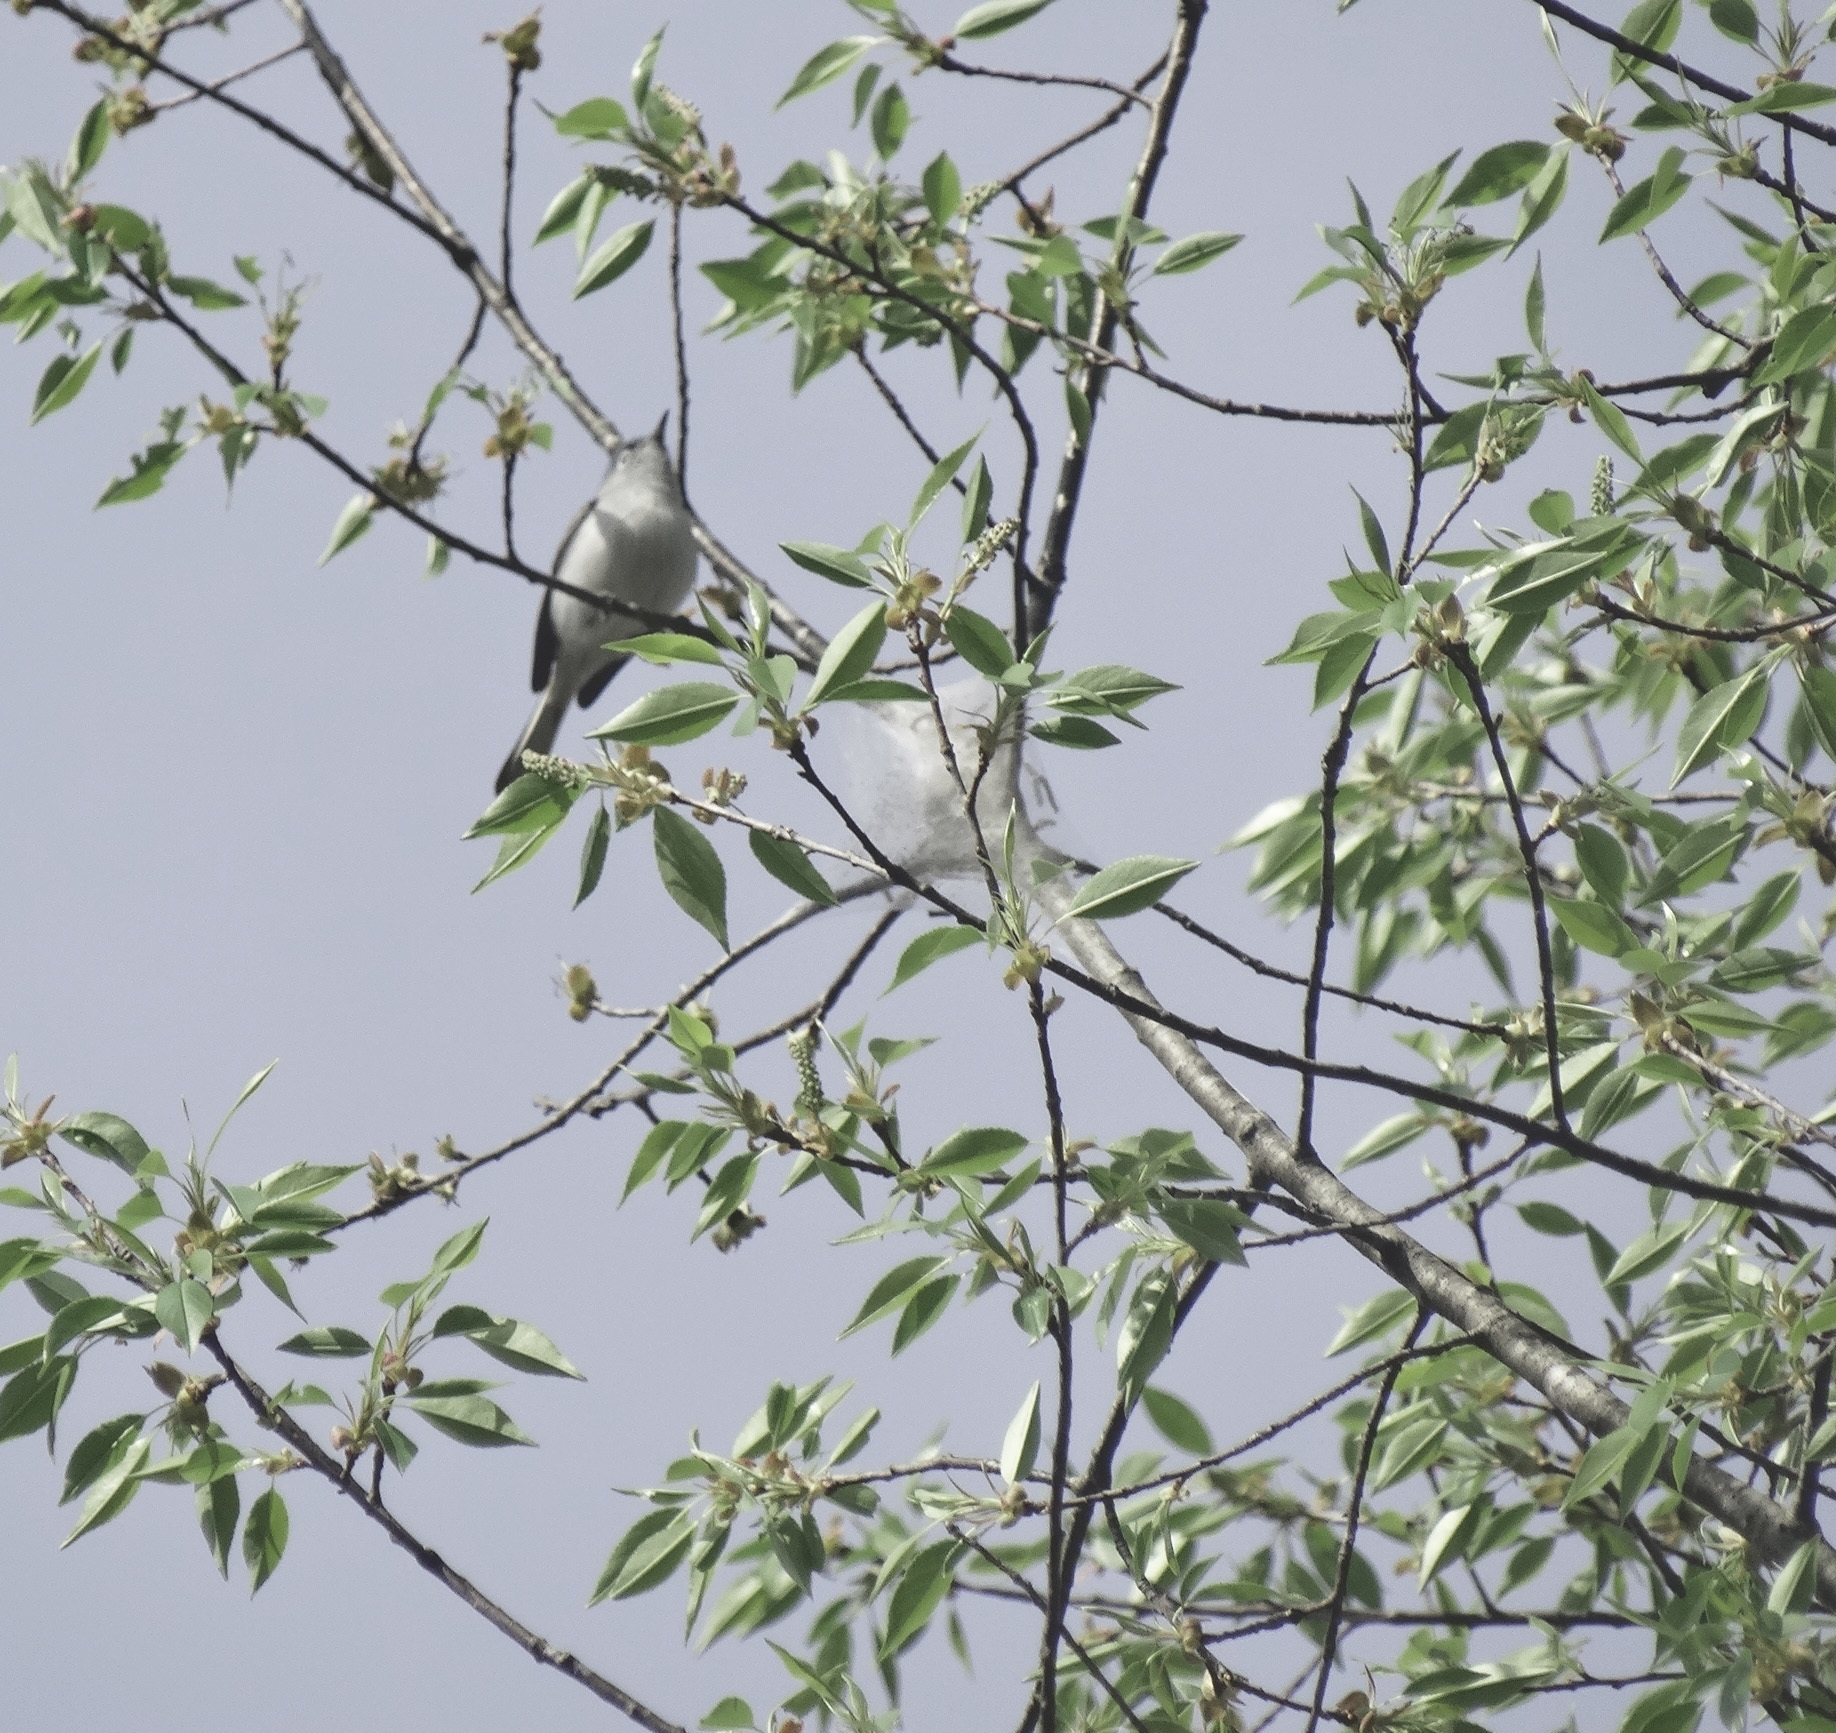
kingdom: Animalia
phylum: Chordata
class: Aves
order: Passeriformes
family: Polioptilidae
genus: Polioptila
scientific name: Polioptila caerulea
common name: Blue-gray gnatcatcher
